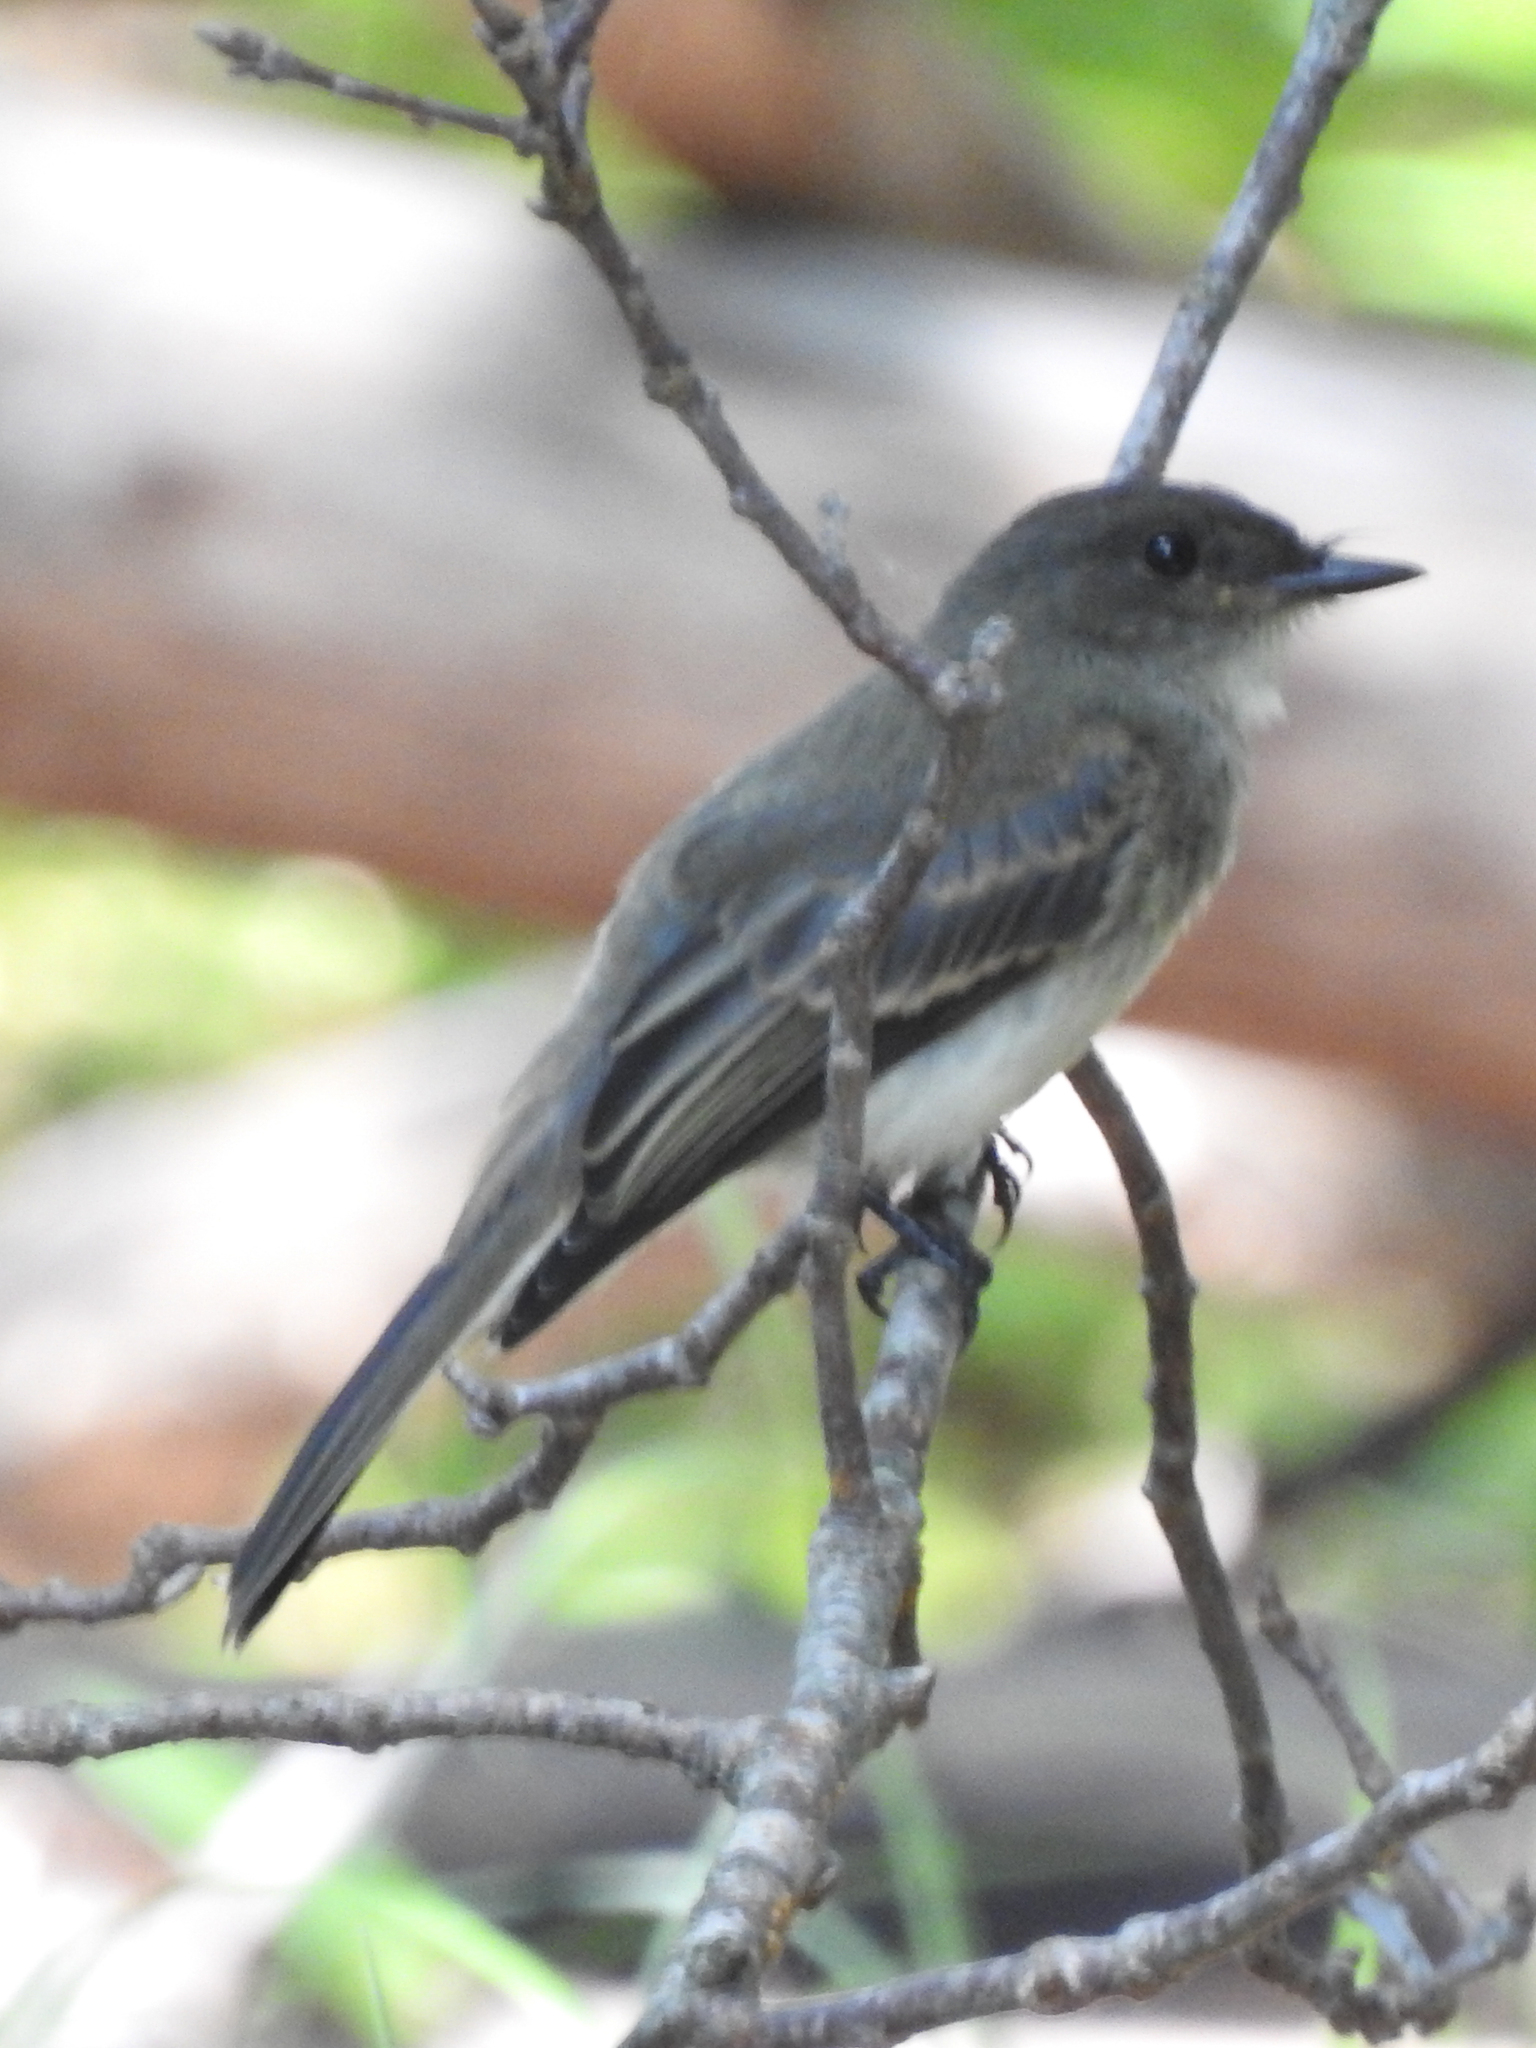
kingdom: Animalia
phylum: Chordata
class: Aves
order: Passeriformes
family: Tyrannidae
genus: Sayornis
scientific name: Sayornis phoebe
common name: Eastern phoebe
